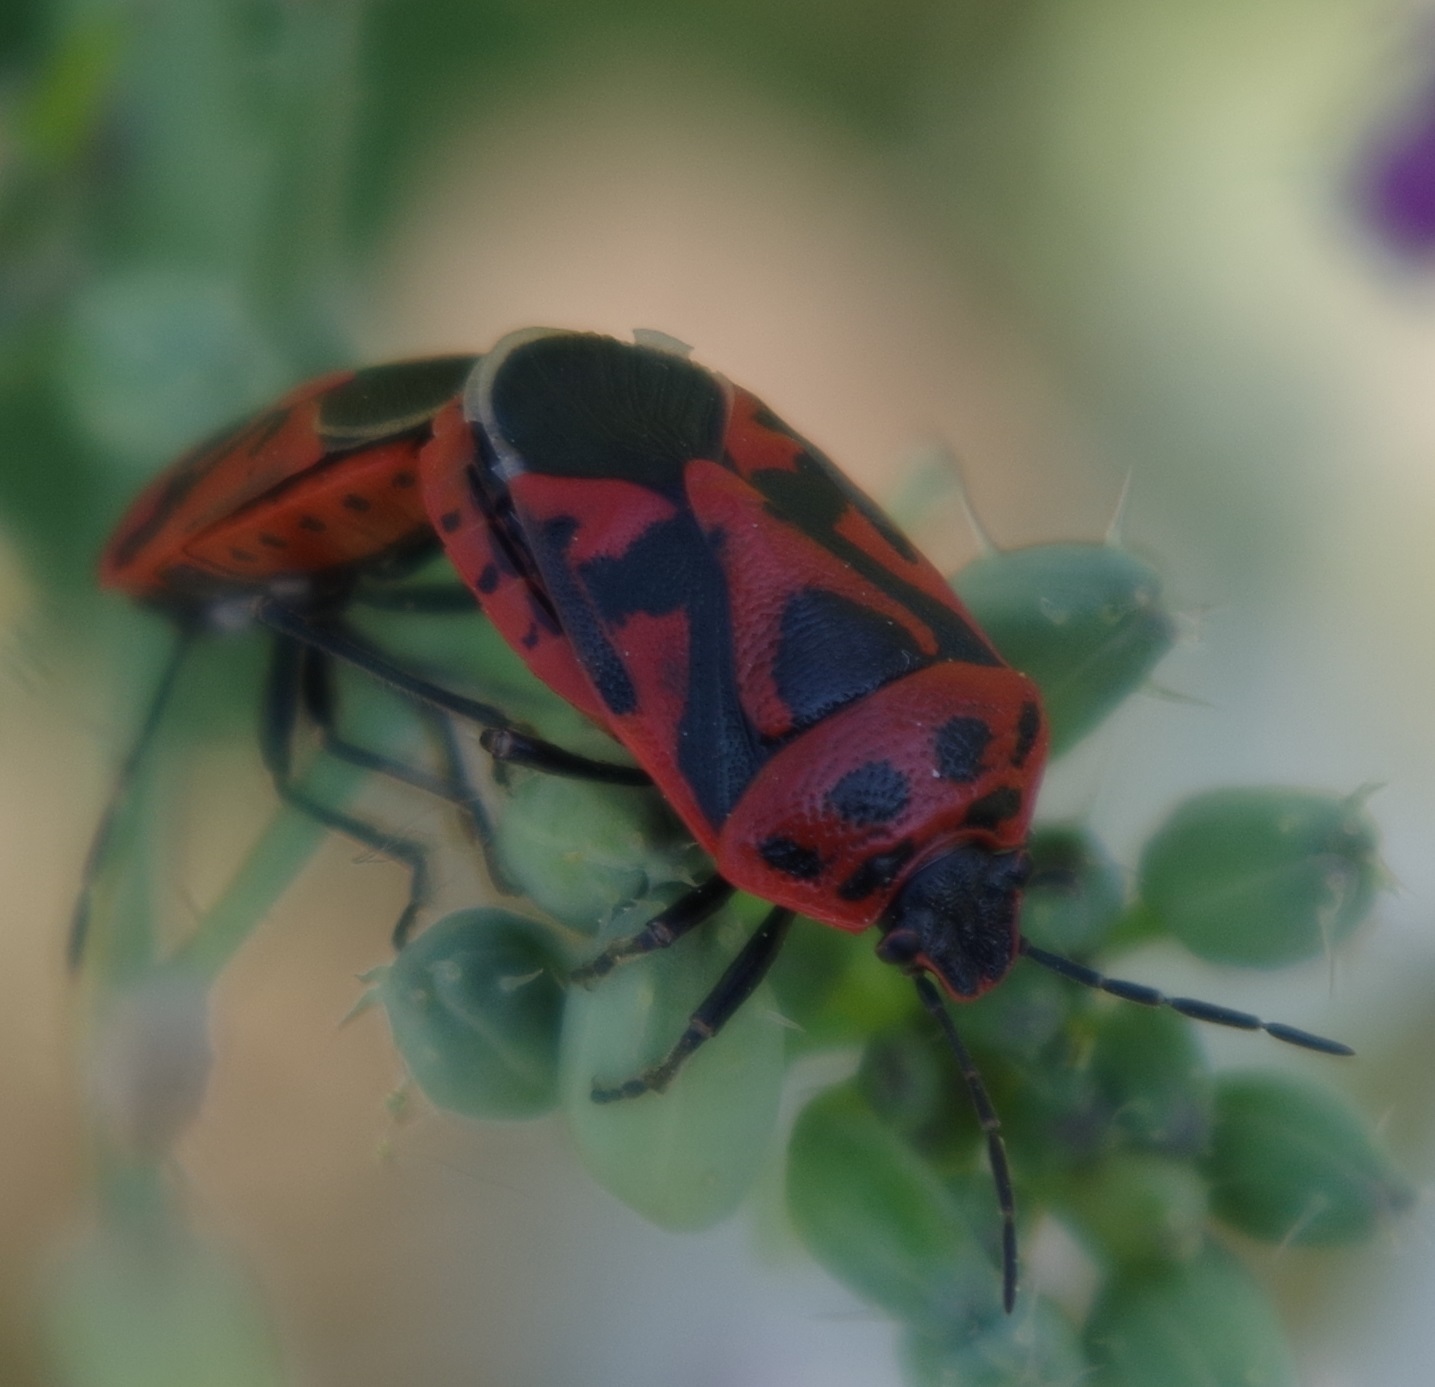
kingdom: Animalia
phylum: Arthropoda
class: Insecta
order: Hemiptera
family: Pentatomidae
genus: Eurydema
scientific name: Eurydema ornata
